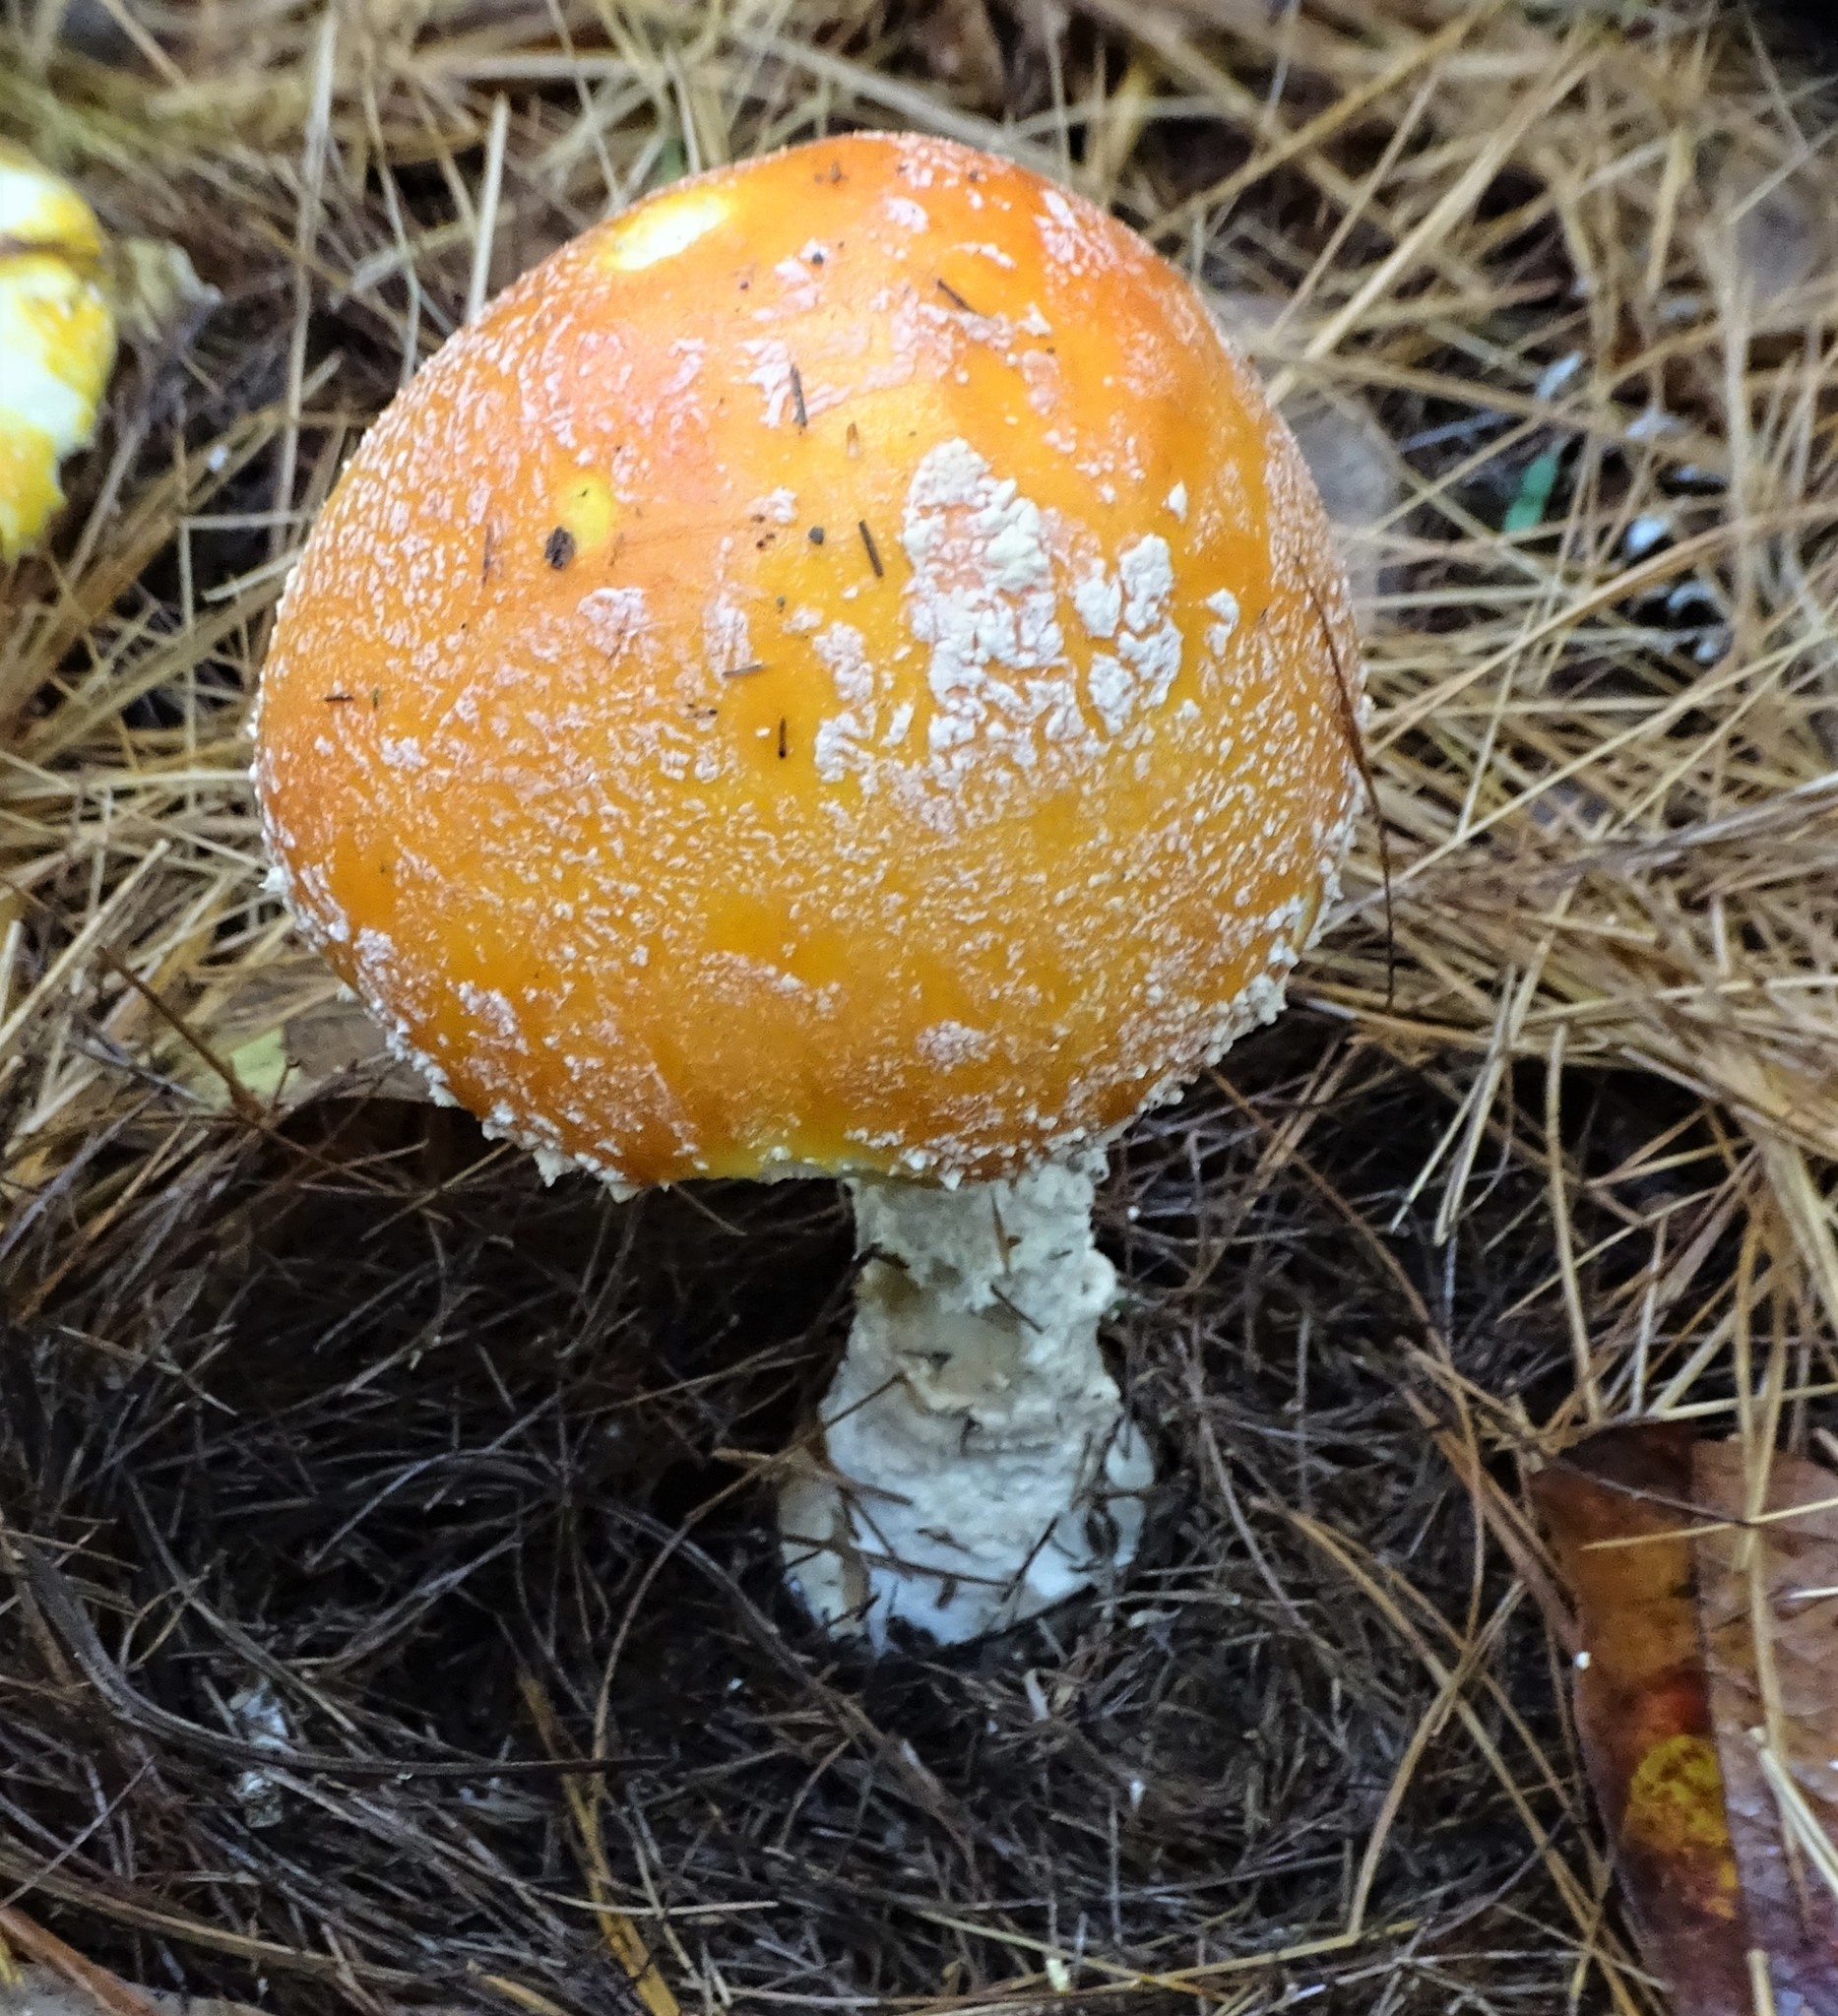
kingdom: Fungi
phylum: Basidiomycota
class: Agaricomycetes
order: Agaricales
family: Amanitaceae
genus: Amanita
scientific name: Amanita muscaria
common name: Fly agaric
